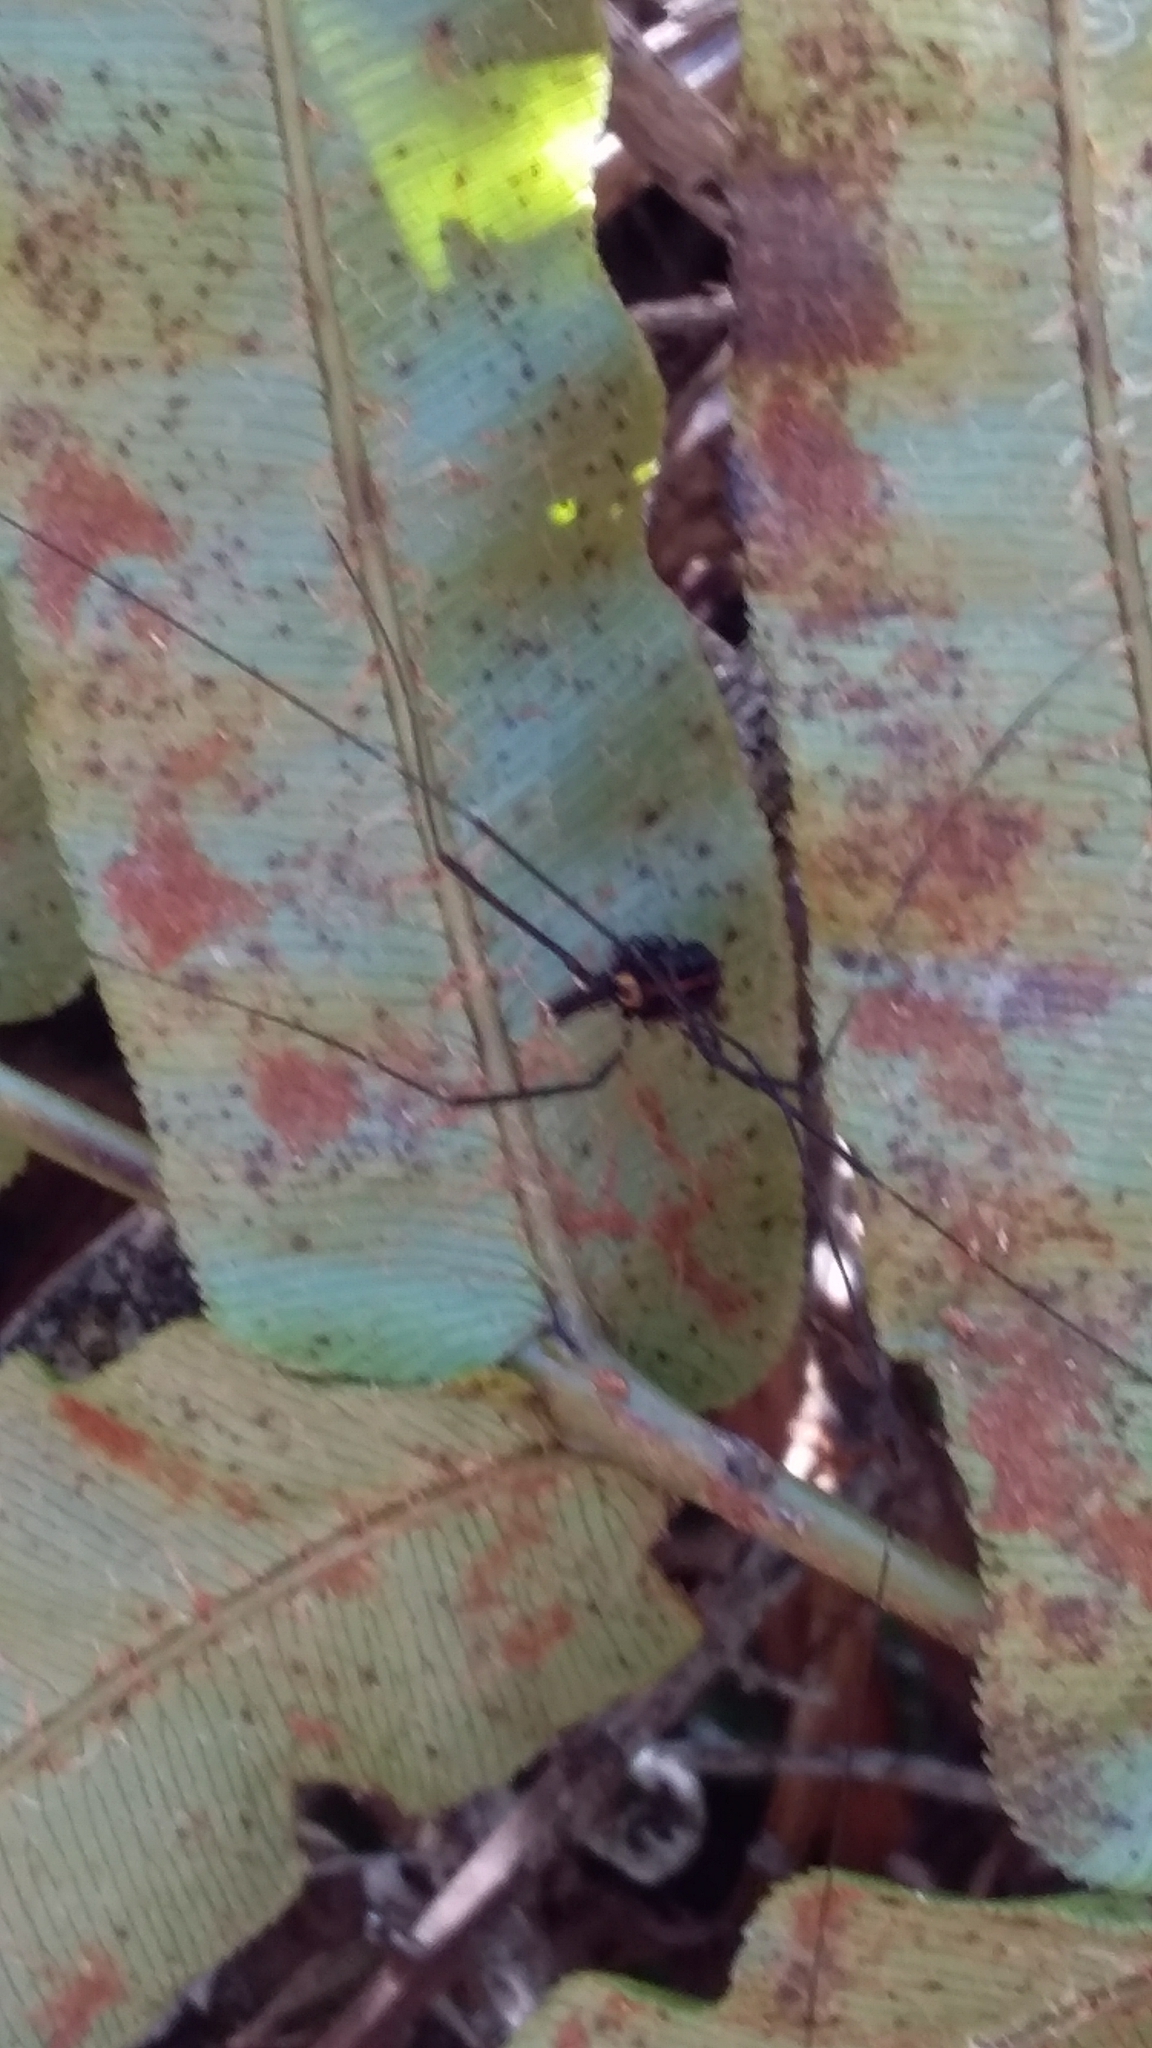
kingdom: Animalia
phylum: Arthropoda
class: Arachnida
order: Opiliones
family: Neopilionidae
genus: Forsteropsalis
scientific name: Forsteropsalis pureora
